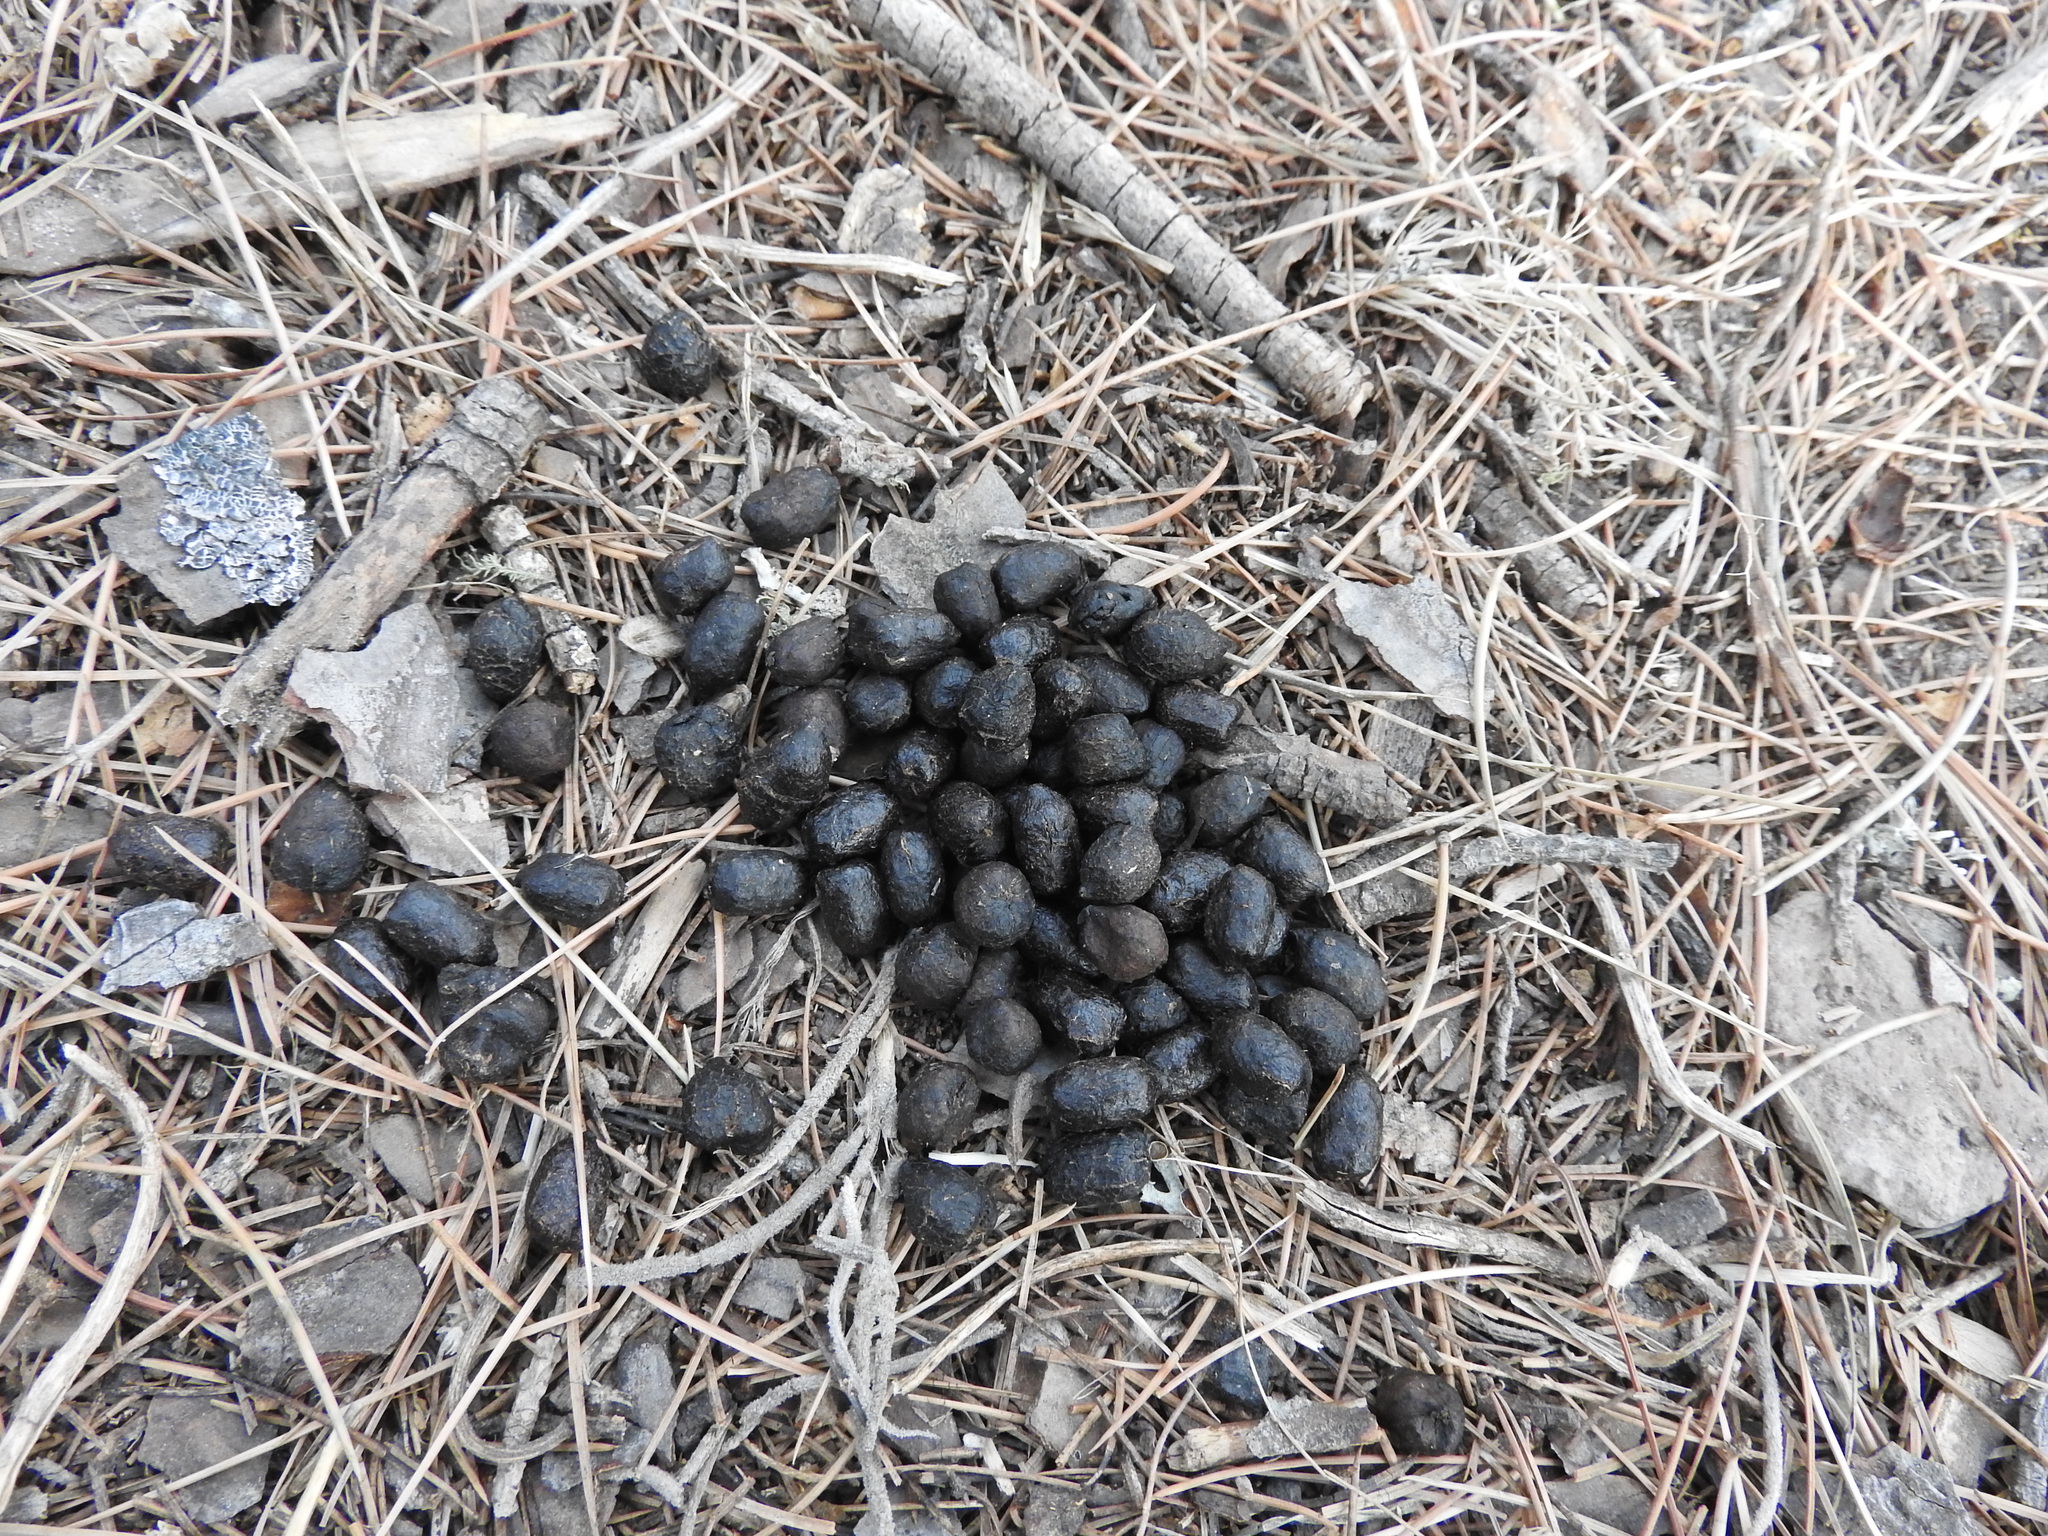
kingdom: Animalia
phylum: Chordata
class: Mammalia
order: Artiodactyla
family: Cervidae
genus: Odocoileus
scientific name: Odocoileus virginianus
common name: White-tailed deer
